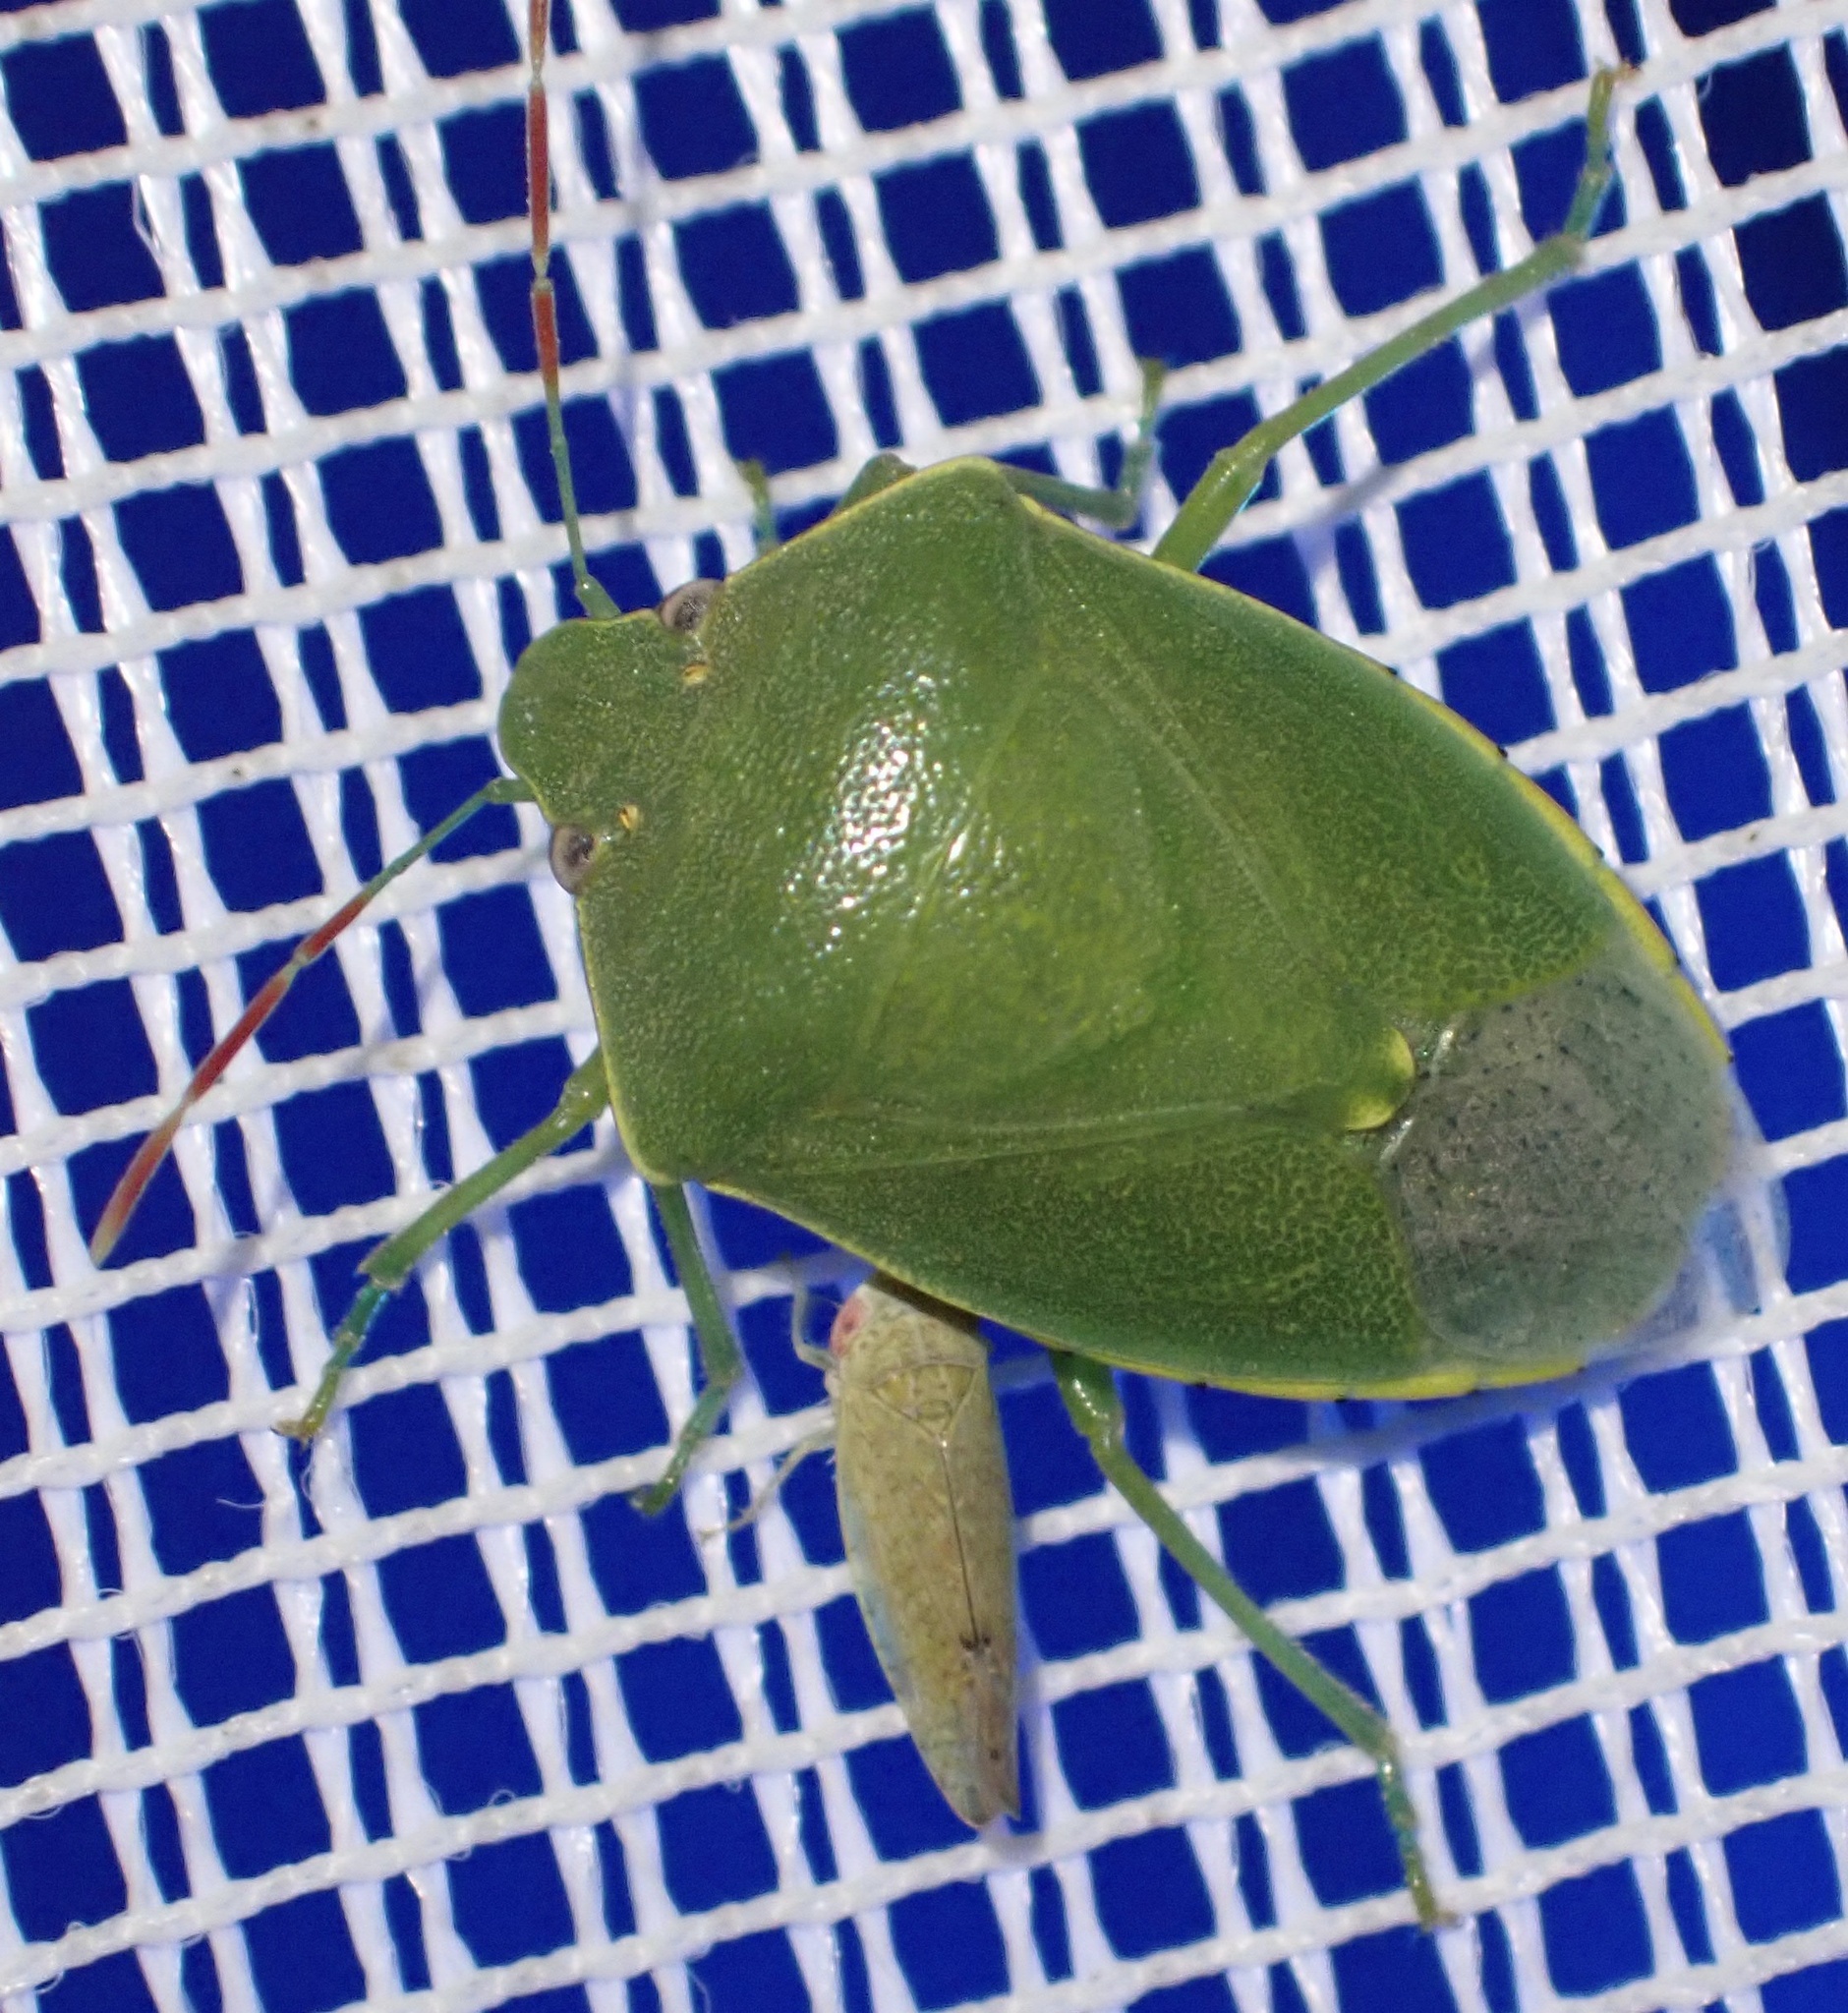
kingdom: Animalia
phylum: Arthropoda
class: Insecta
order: Hemiptera
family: Pentatomidae
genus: Acrosternum
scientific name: Acrosternum heegeri
